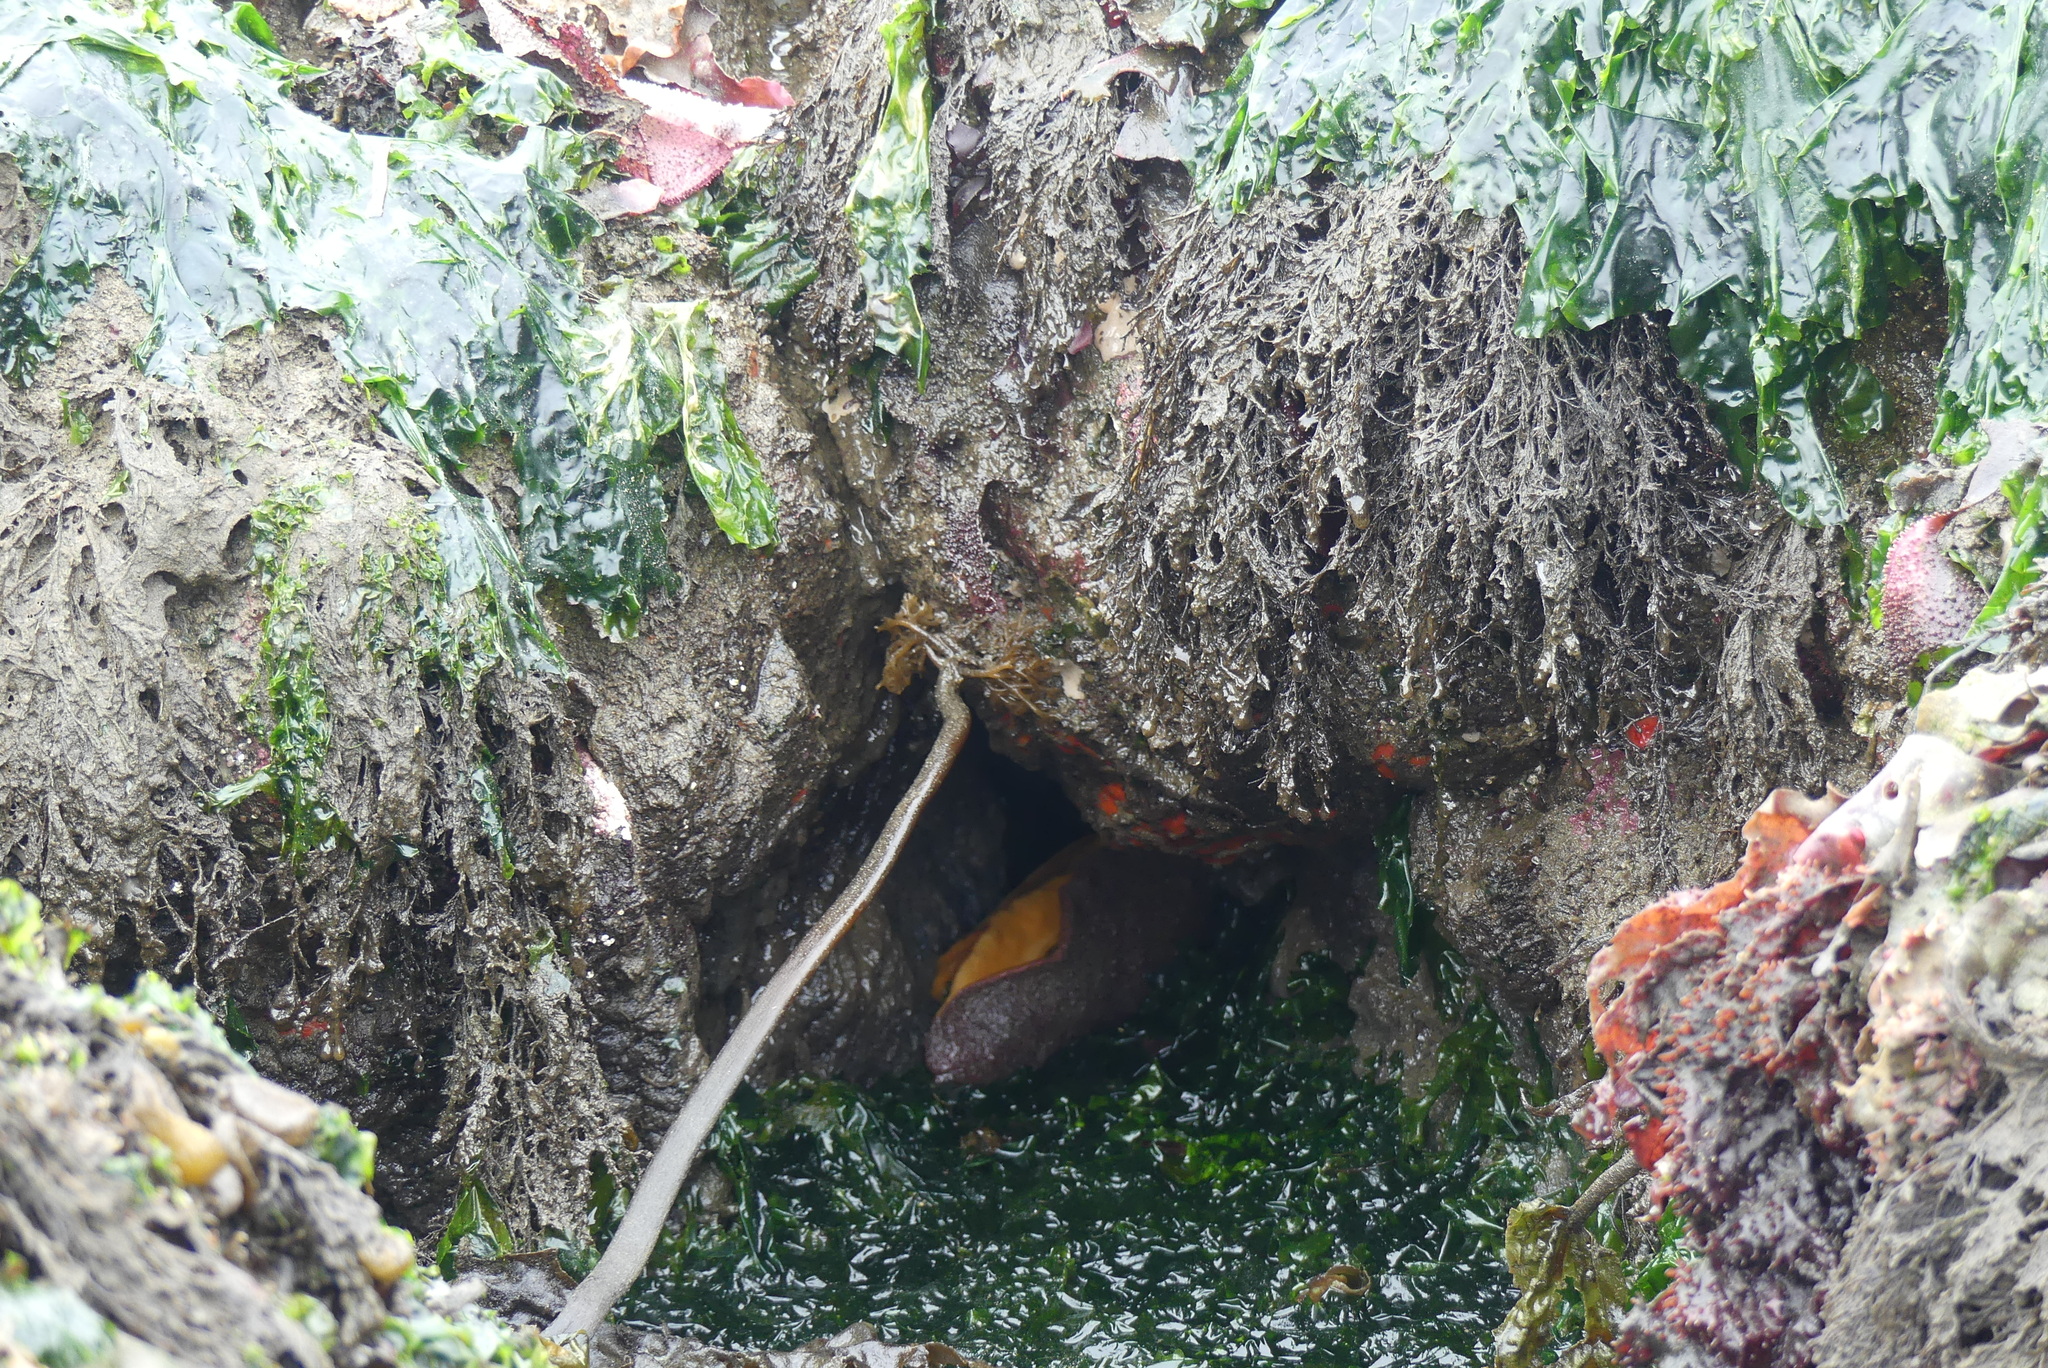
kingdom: Animalia
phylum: Mollusca
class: Polyplacophora
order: Chitonida
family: Acanthochitonidae
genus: Cryptochiton
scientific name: Cryptochiton stelleri
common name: Giant pacific chiton
